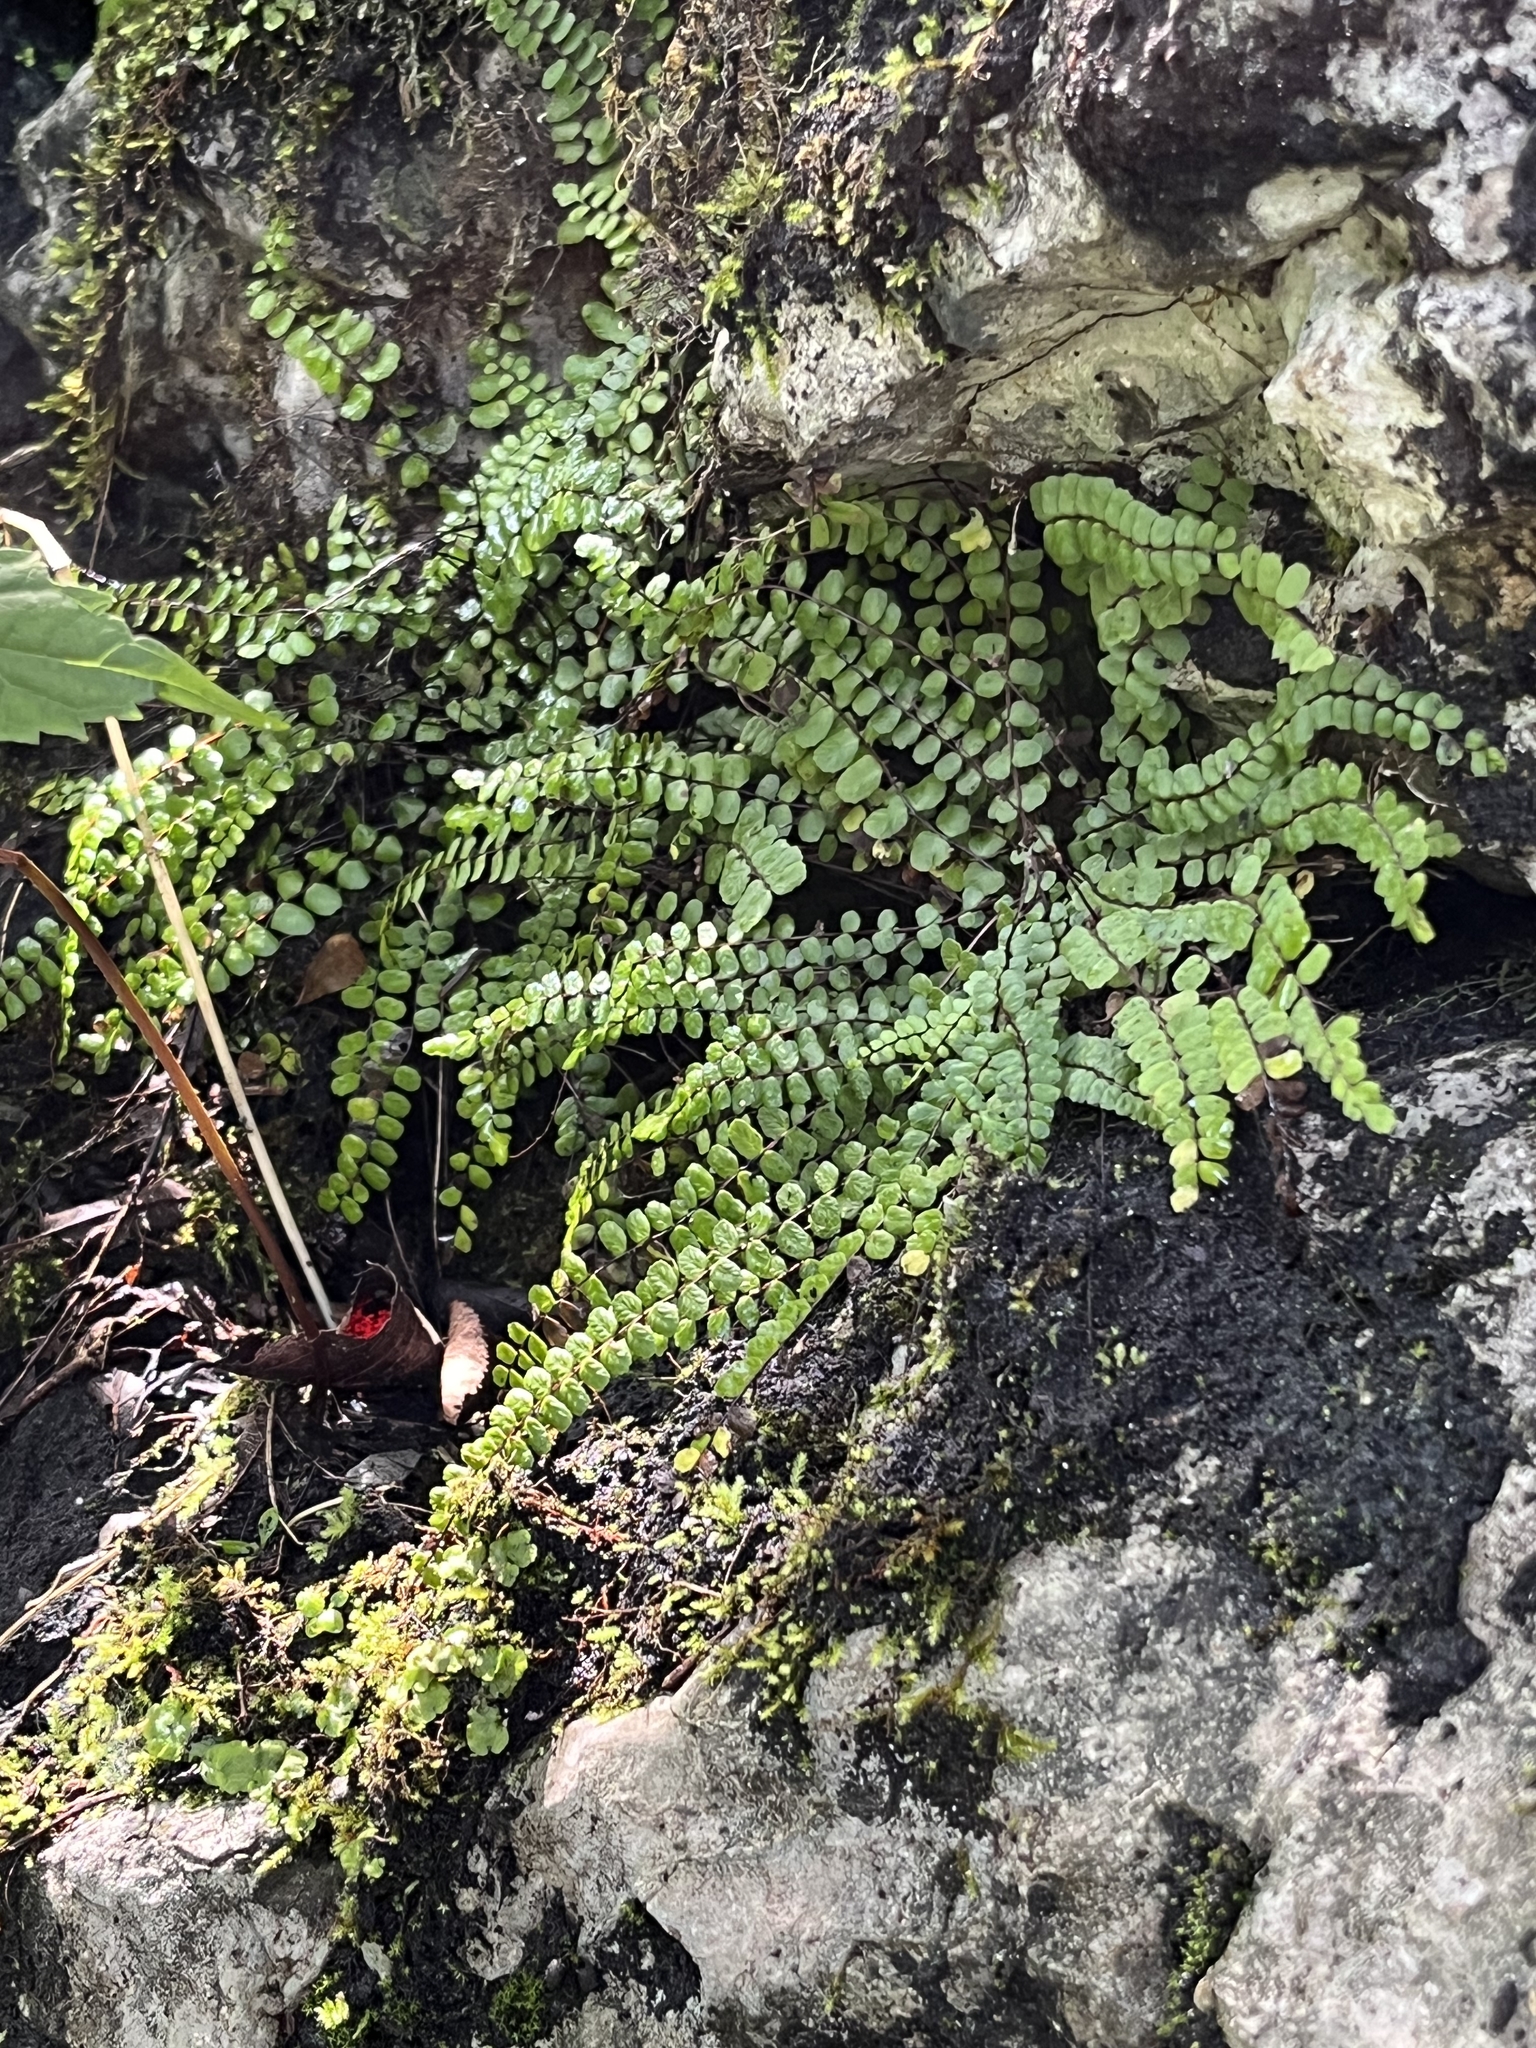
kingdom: Plantae
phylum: Tracheophyta
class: Polypodiopsida
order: Polypodiales
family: Aspleniaceae
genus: Asplenium
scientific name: Asplenium trichomanes
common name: Maidenhair spleenwort
